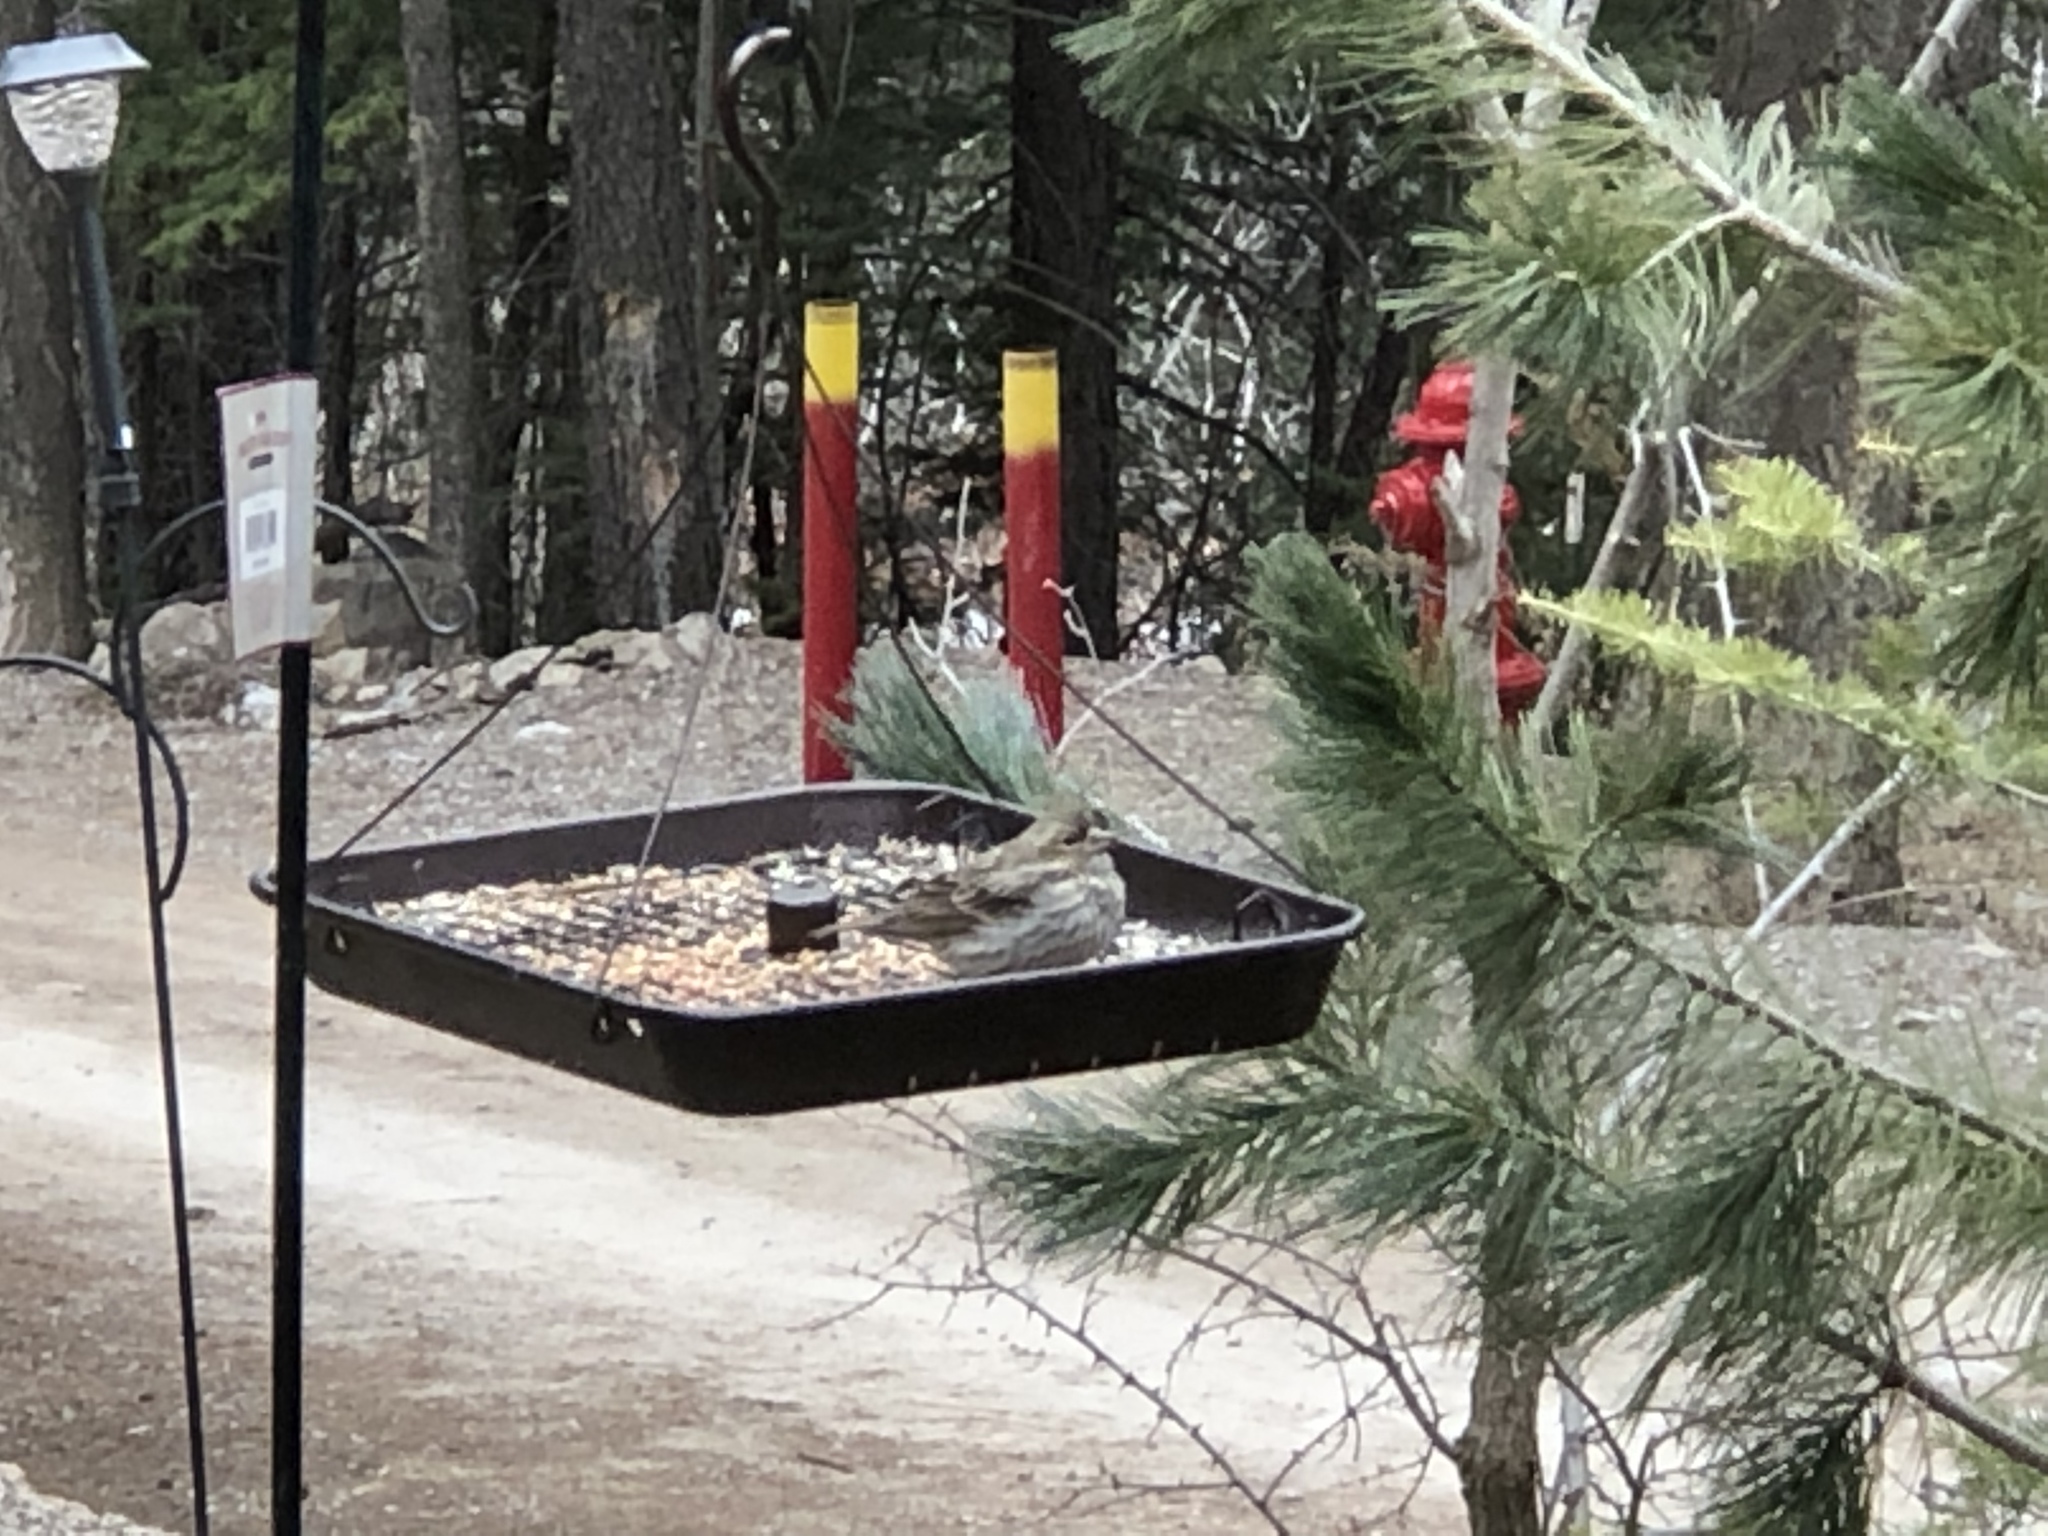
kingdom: Animalia
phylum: Chordata
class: Aves
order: Passeriformes
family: Fringillidae
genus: Haemorhous
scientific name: Haemorhous cassinii
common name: Cassin's finch
